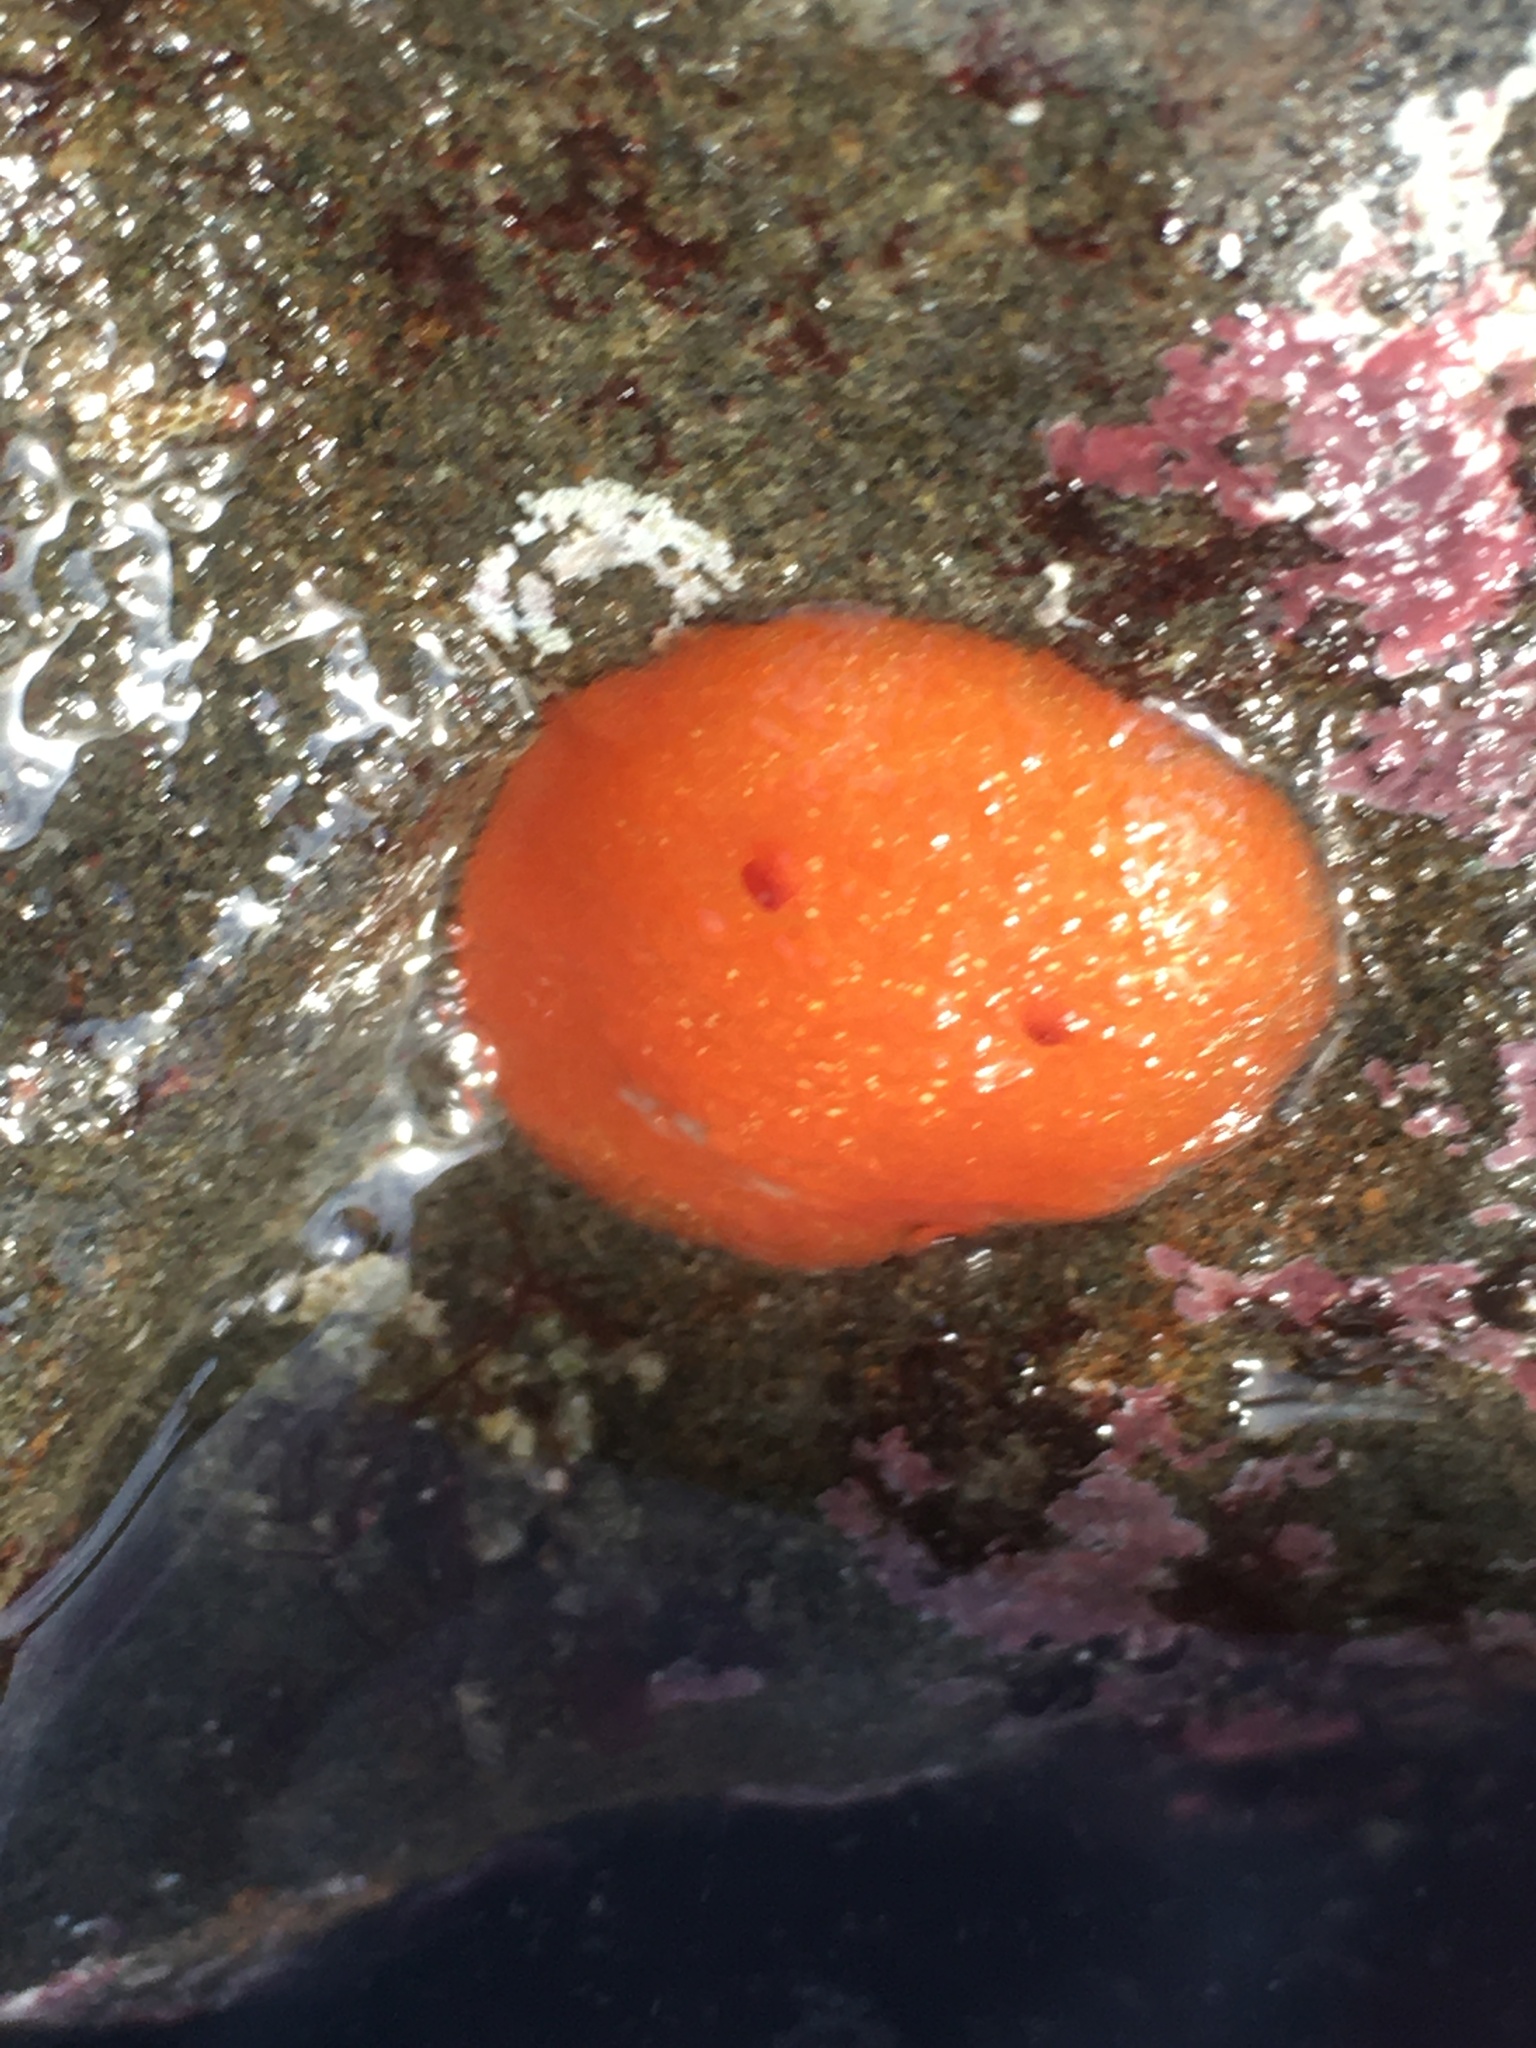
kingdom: Animalia
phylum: Mollusca
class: Gastropoda
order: Nudibranchia
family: Onchidorididae
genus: Acanthodoris
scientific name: Acanthodoris lutea
